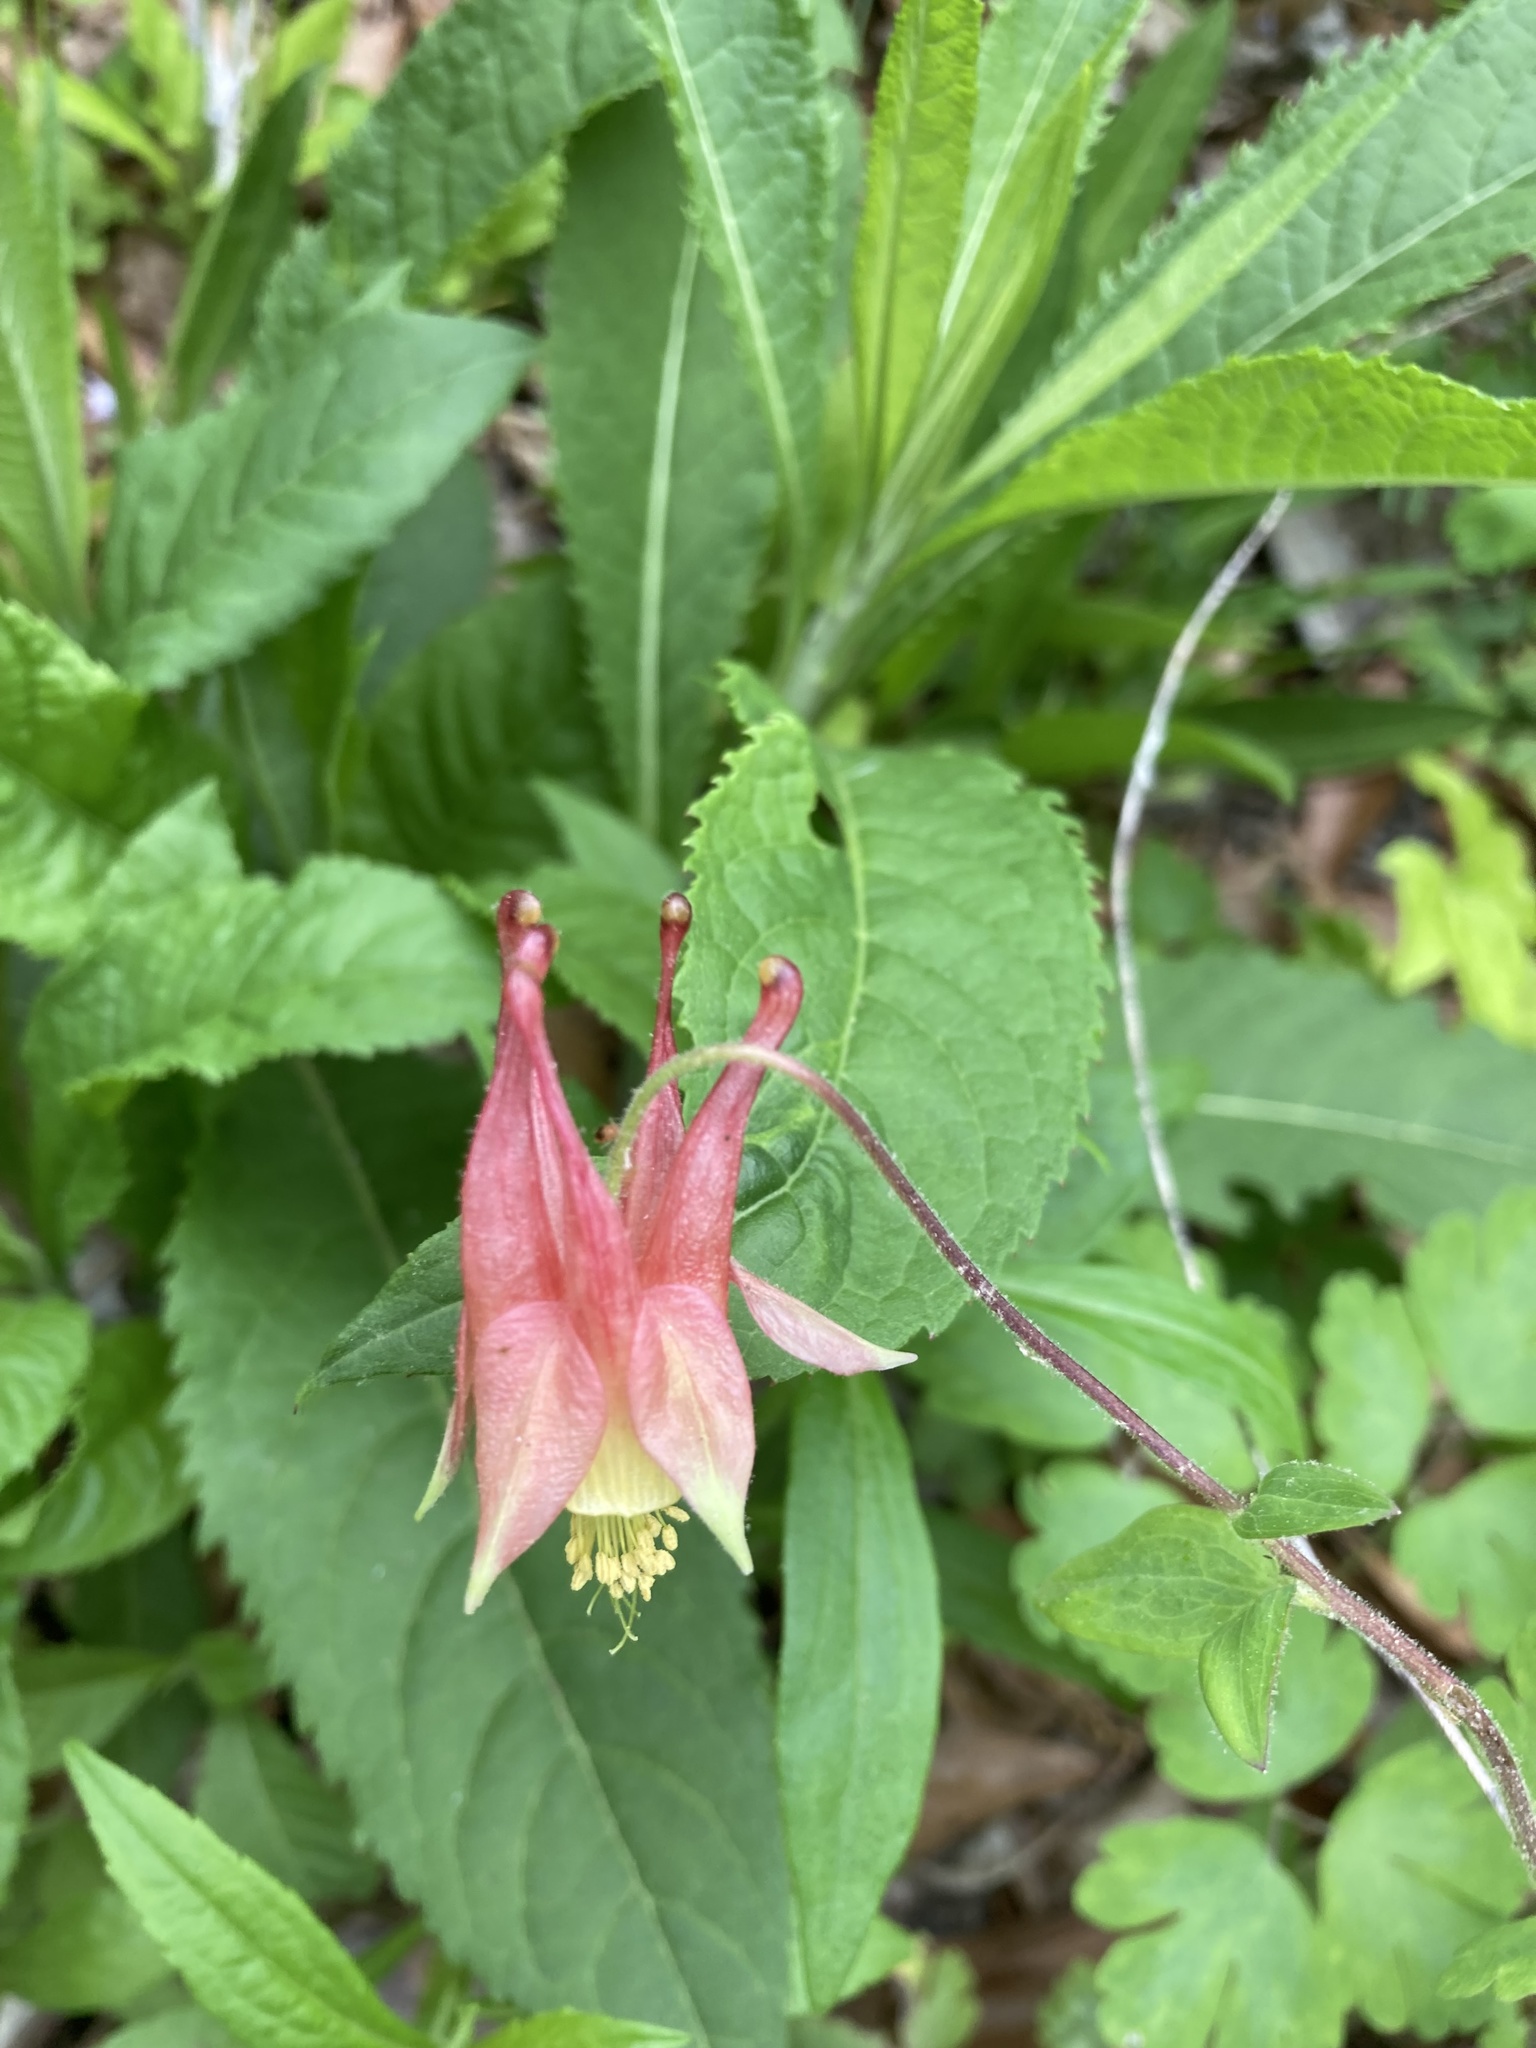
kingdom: Plantae
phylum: Tracheophyta
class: Magnoliopsida
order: Ranunculales
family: Ranunculaceae
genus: Aquilegia
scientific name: Aquilegia canadensis
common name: American columbine
